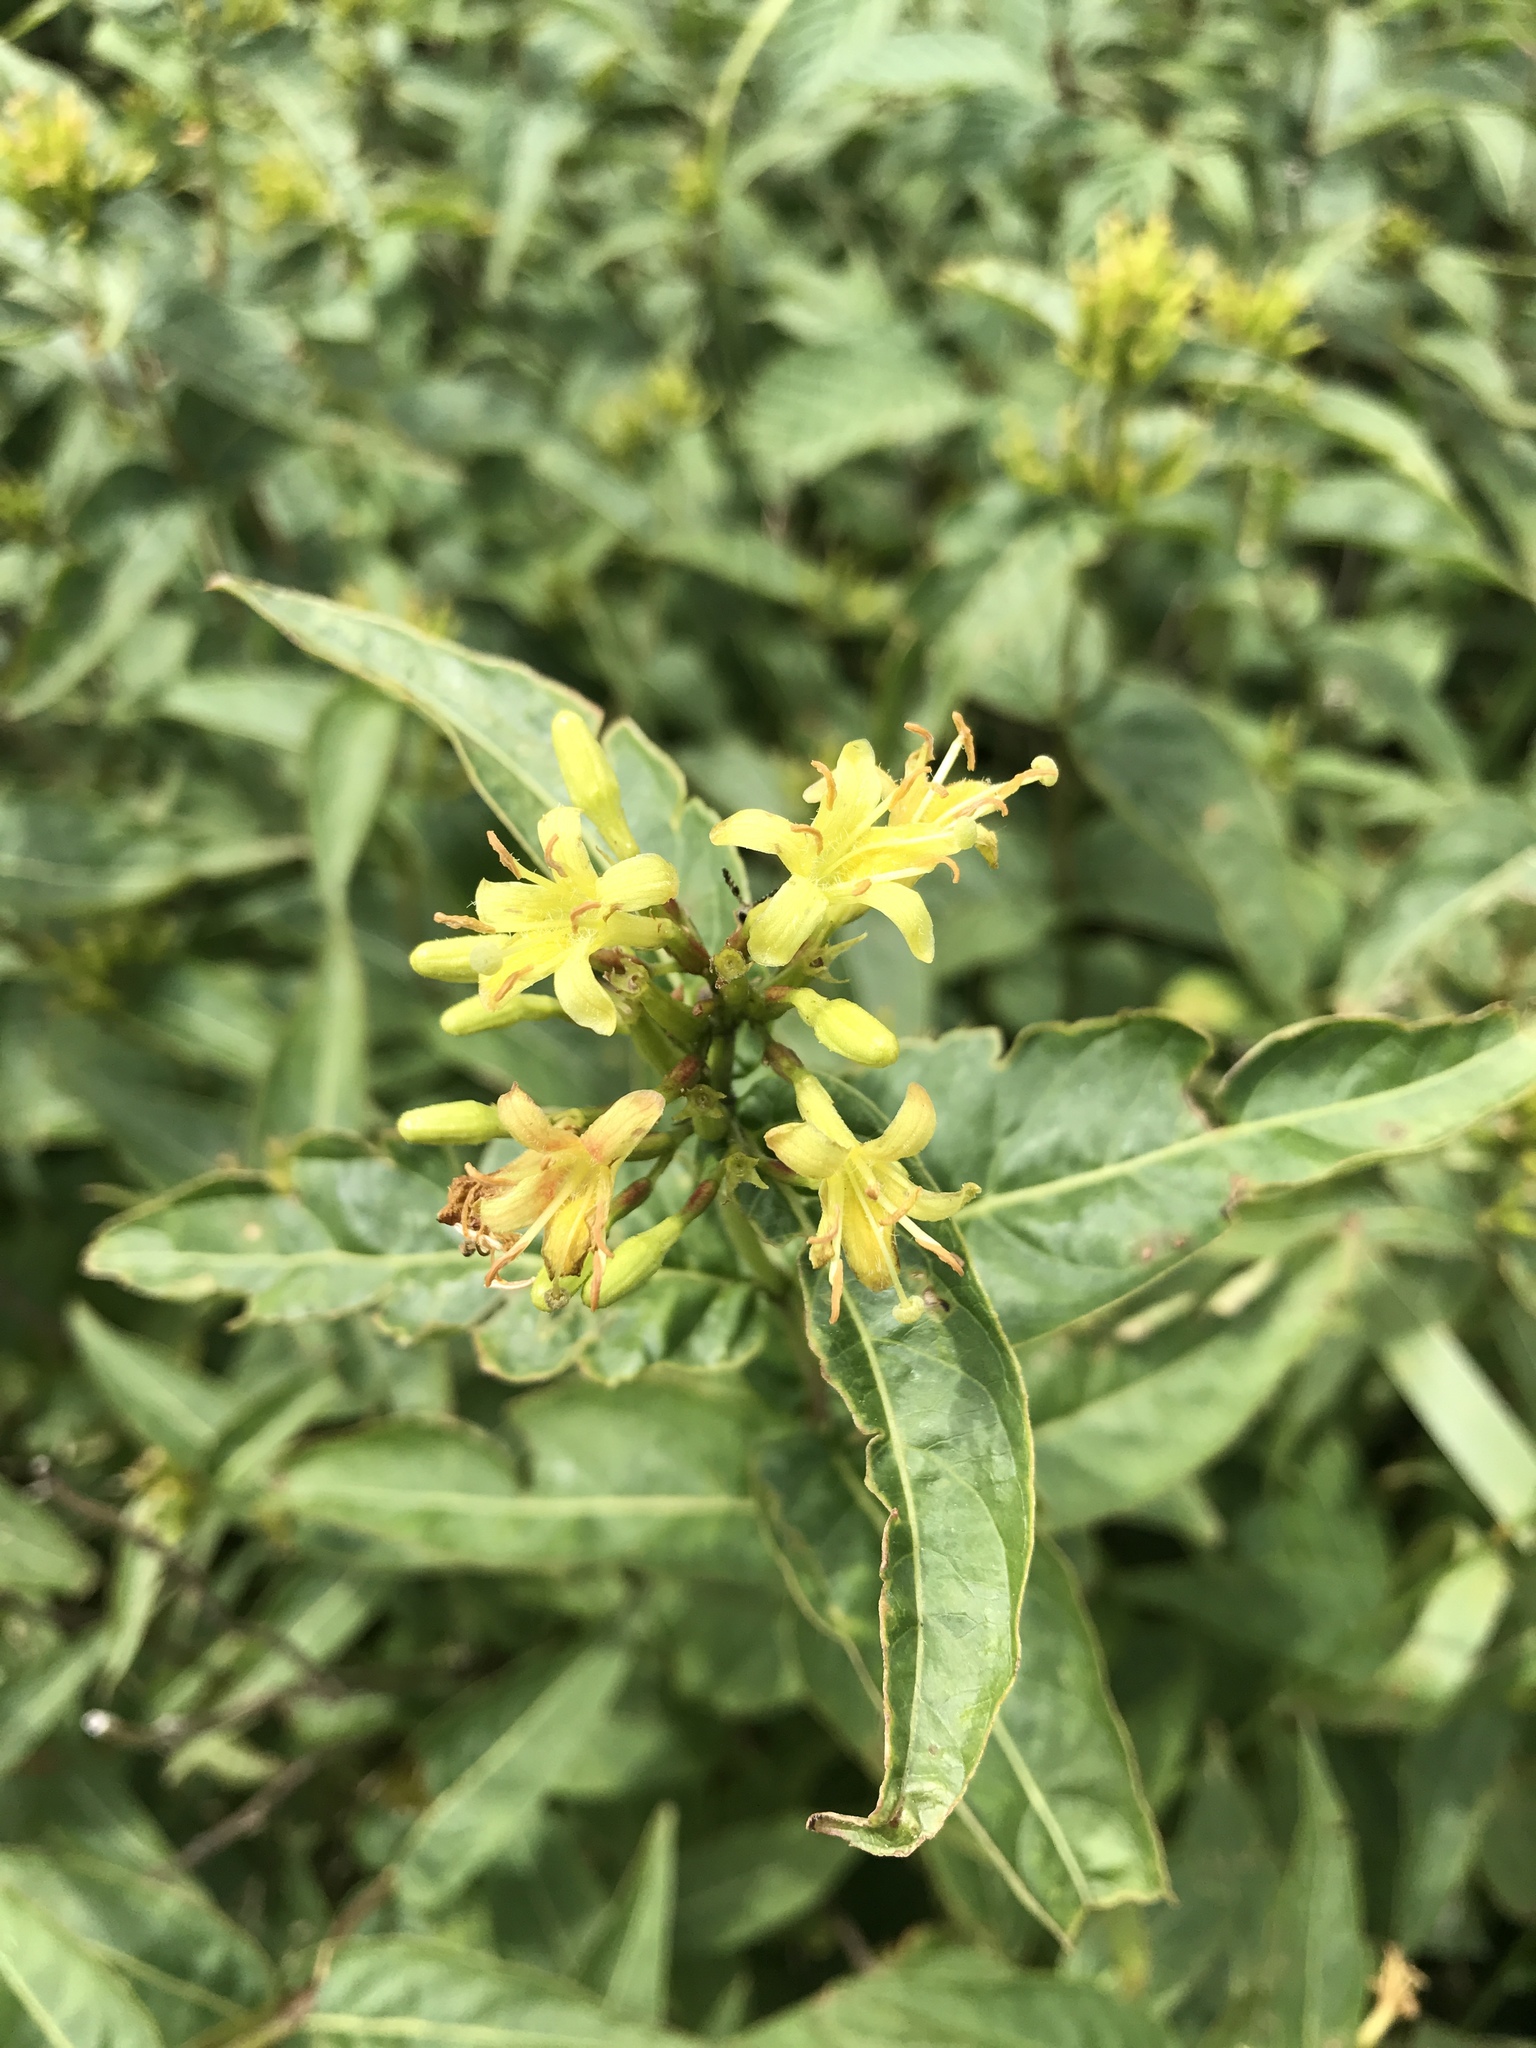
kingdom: Plantae
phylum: Tracheophyta
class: Magnoliopsida
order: Dipsacales
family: Caprifoliaceae
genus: Diervilla
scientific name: Diervilla sessilifolia
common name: Bush-honeysuckle
